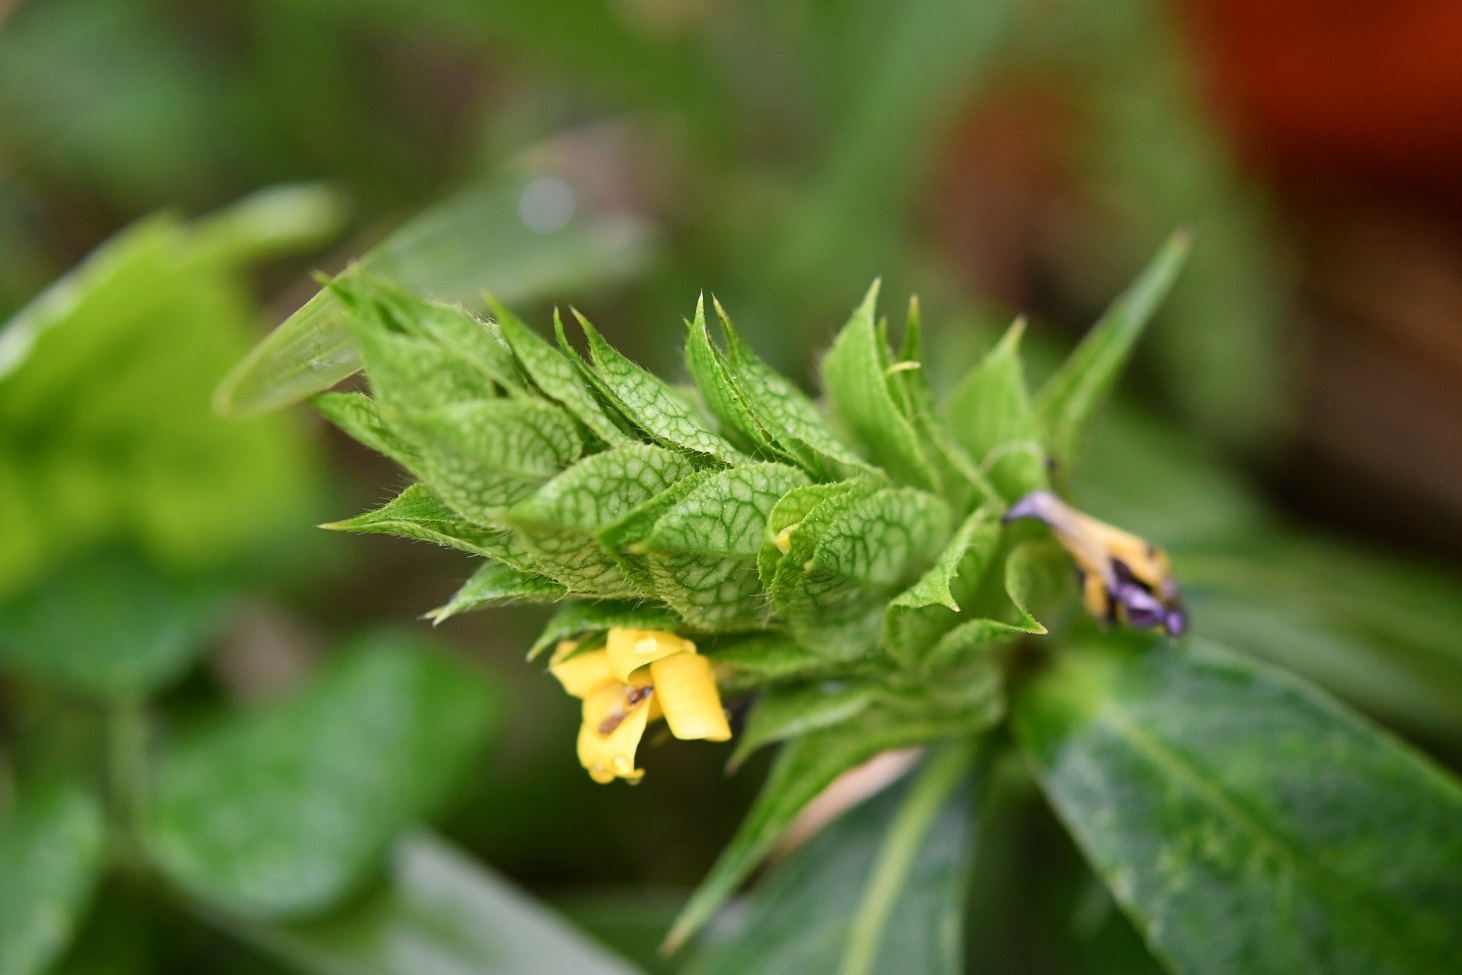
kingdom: Plantae
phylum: Tracheophyta
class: Magnoliopsida
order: Lamiales
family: Acanthaceae
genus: Barleria
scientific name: Barleria oenotheroides
